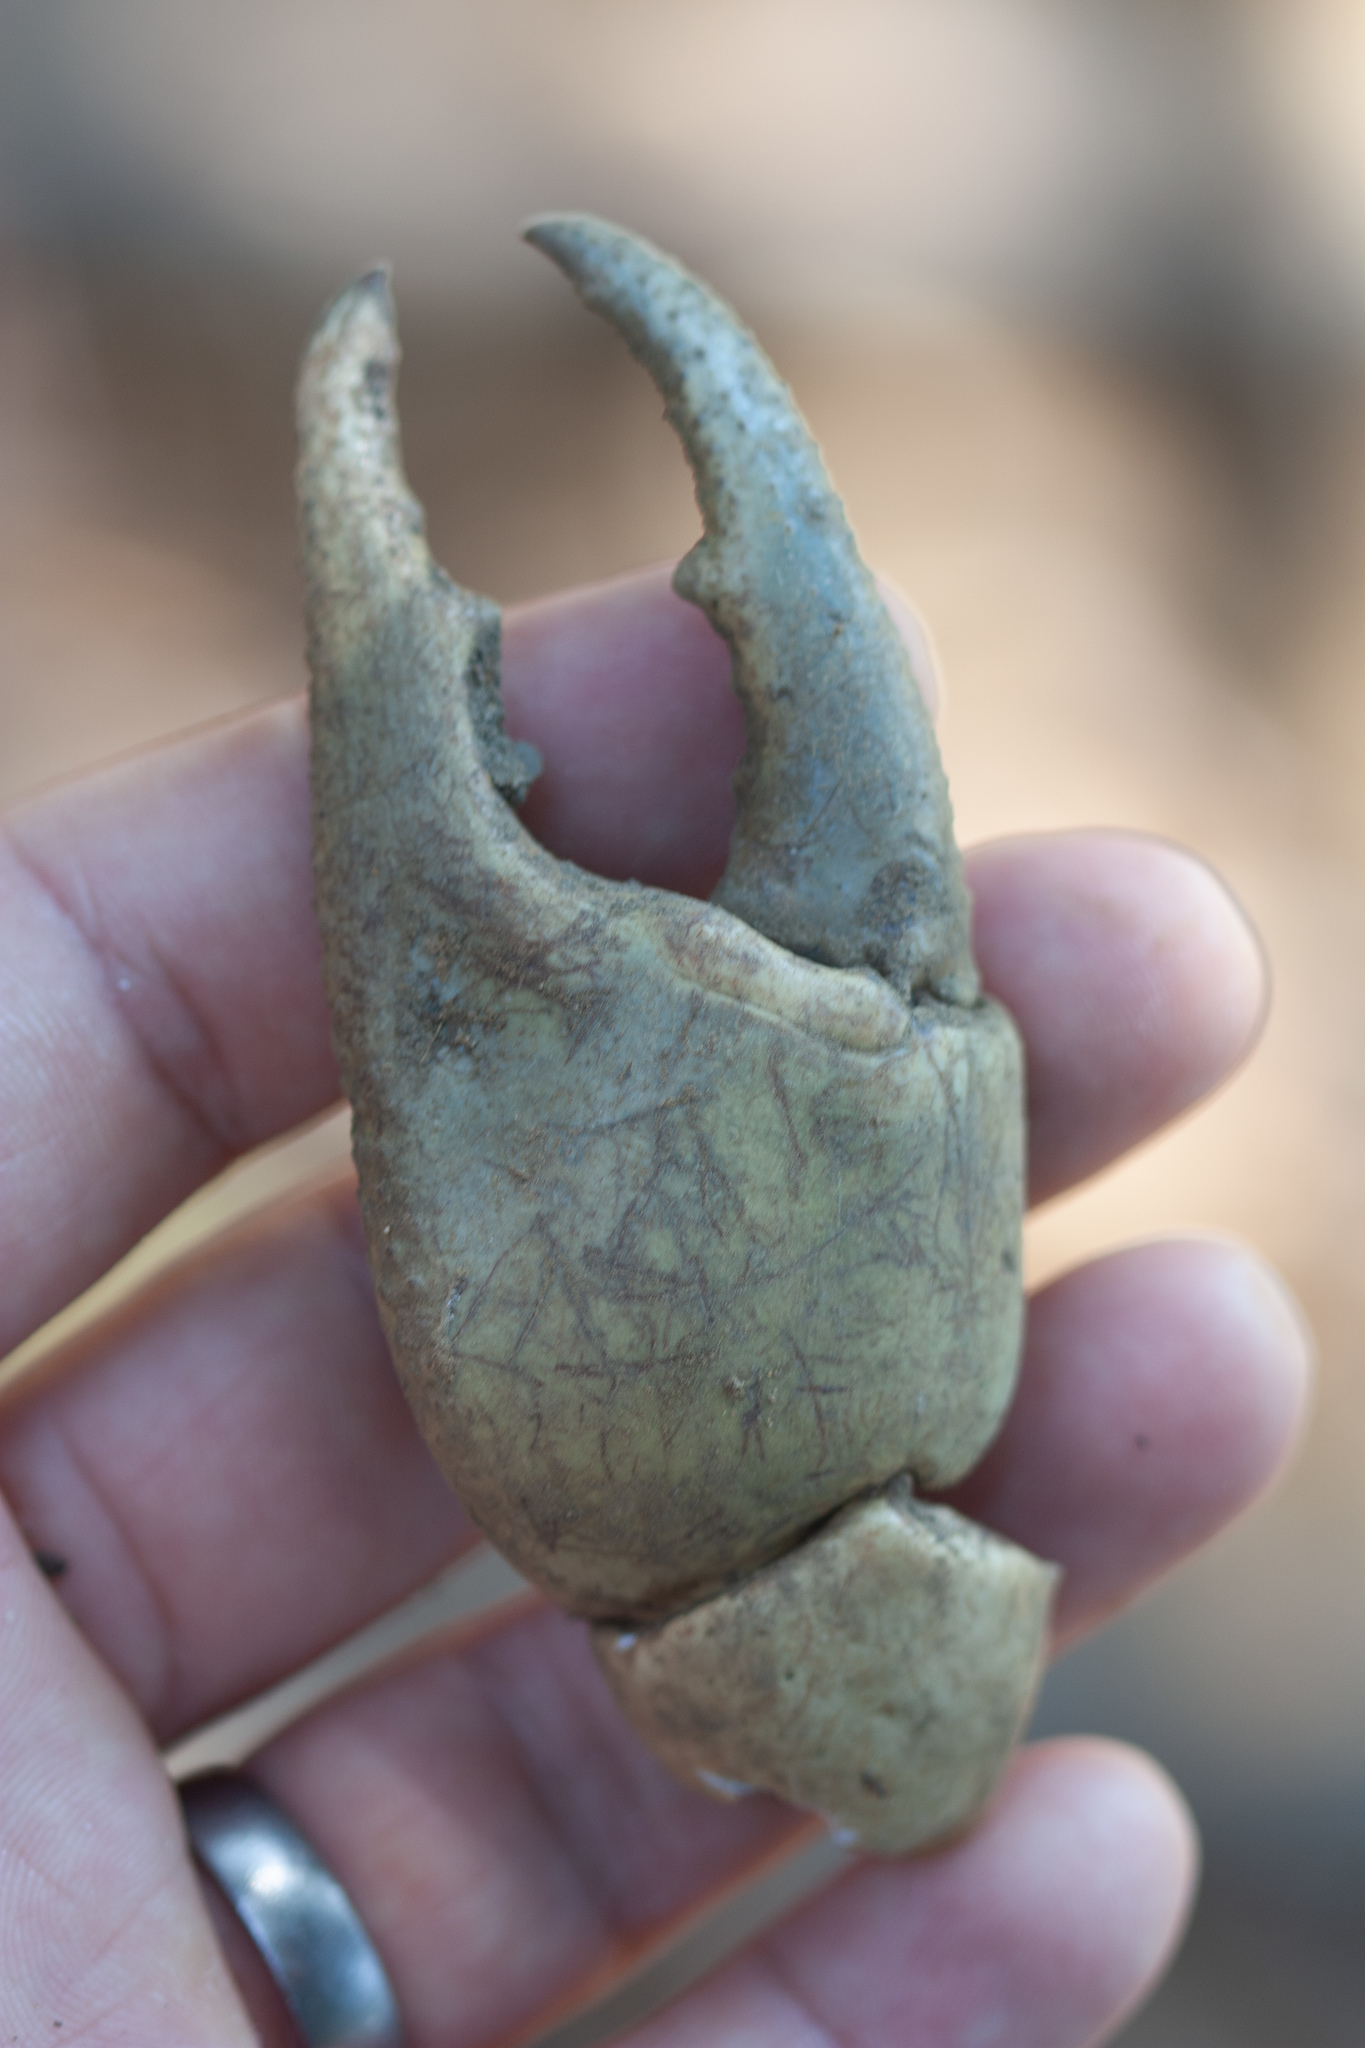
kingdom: Animalia
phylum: Arthropoda
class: Malacostraca
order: Decapoda
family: Gecarcinidae
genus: Cardisoma
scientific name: Cardisoma crassum
